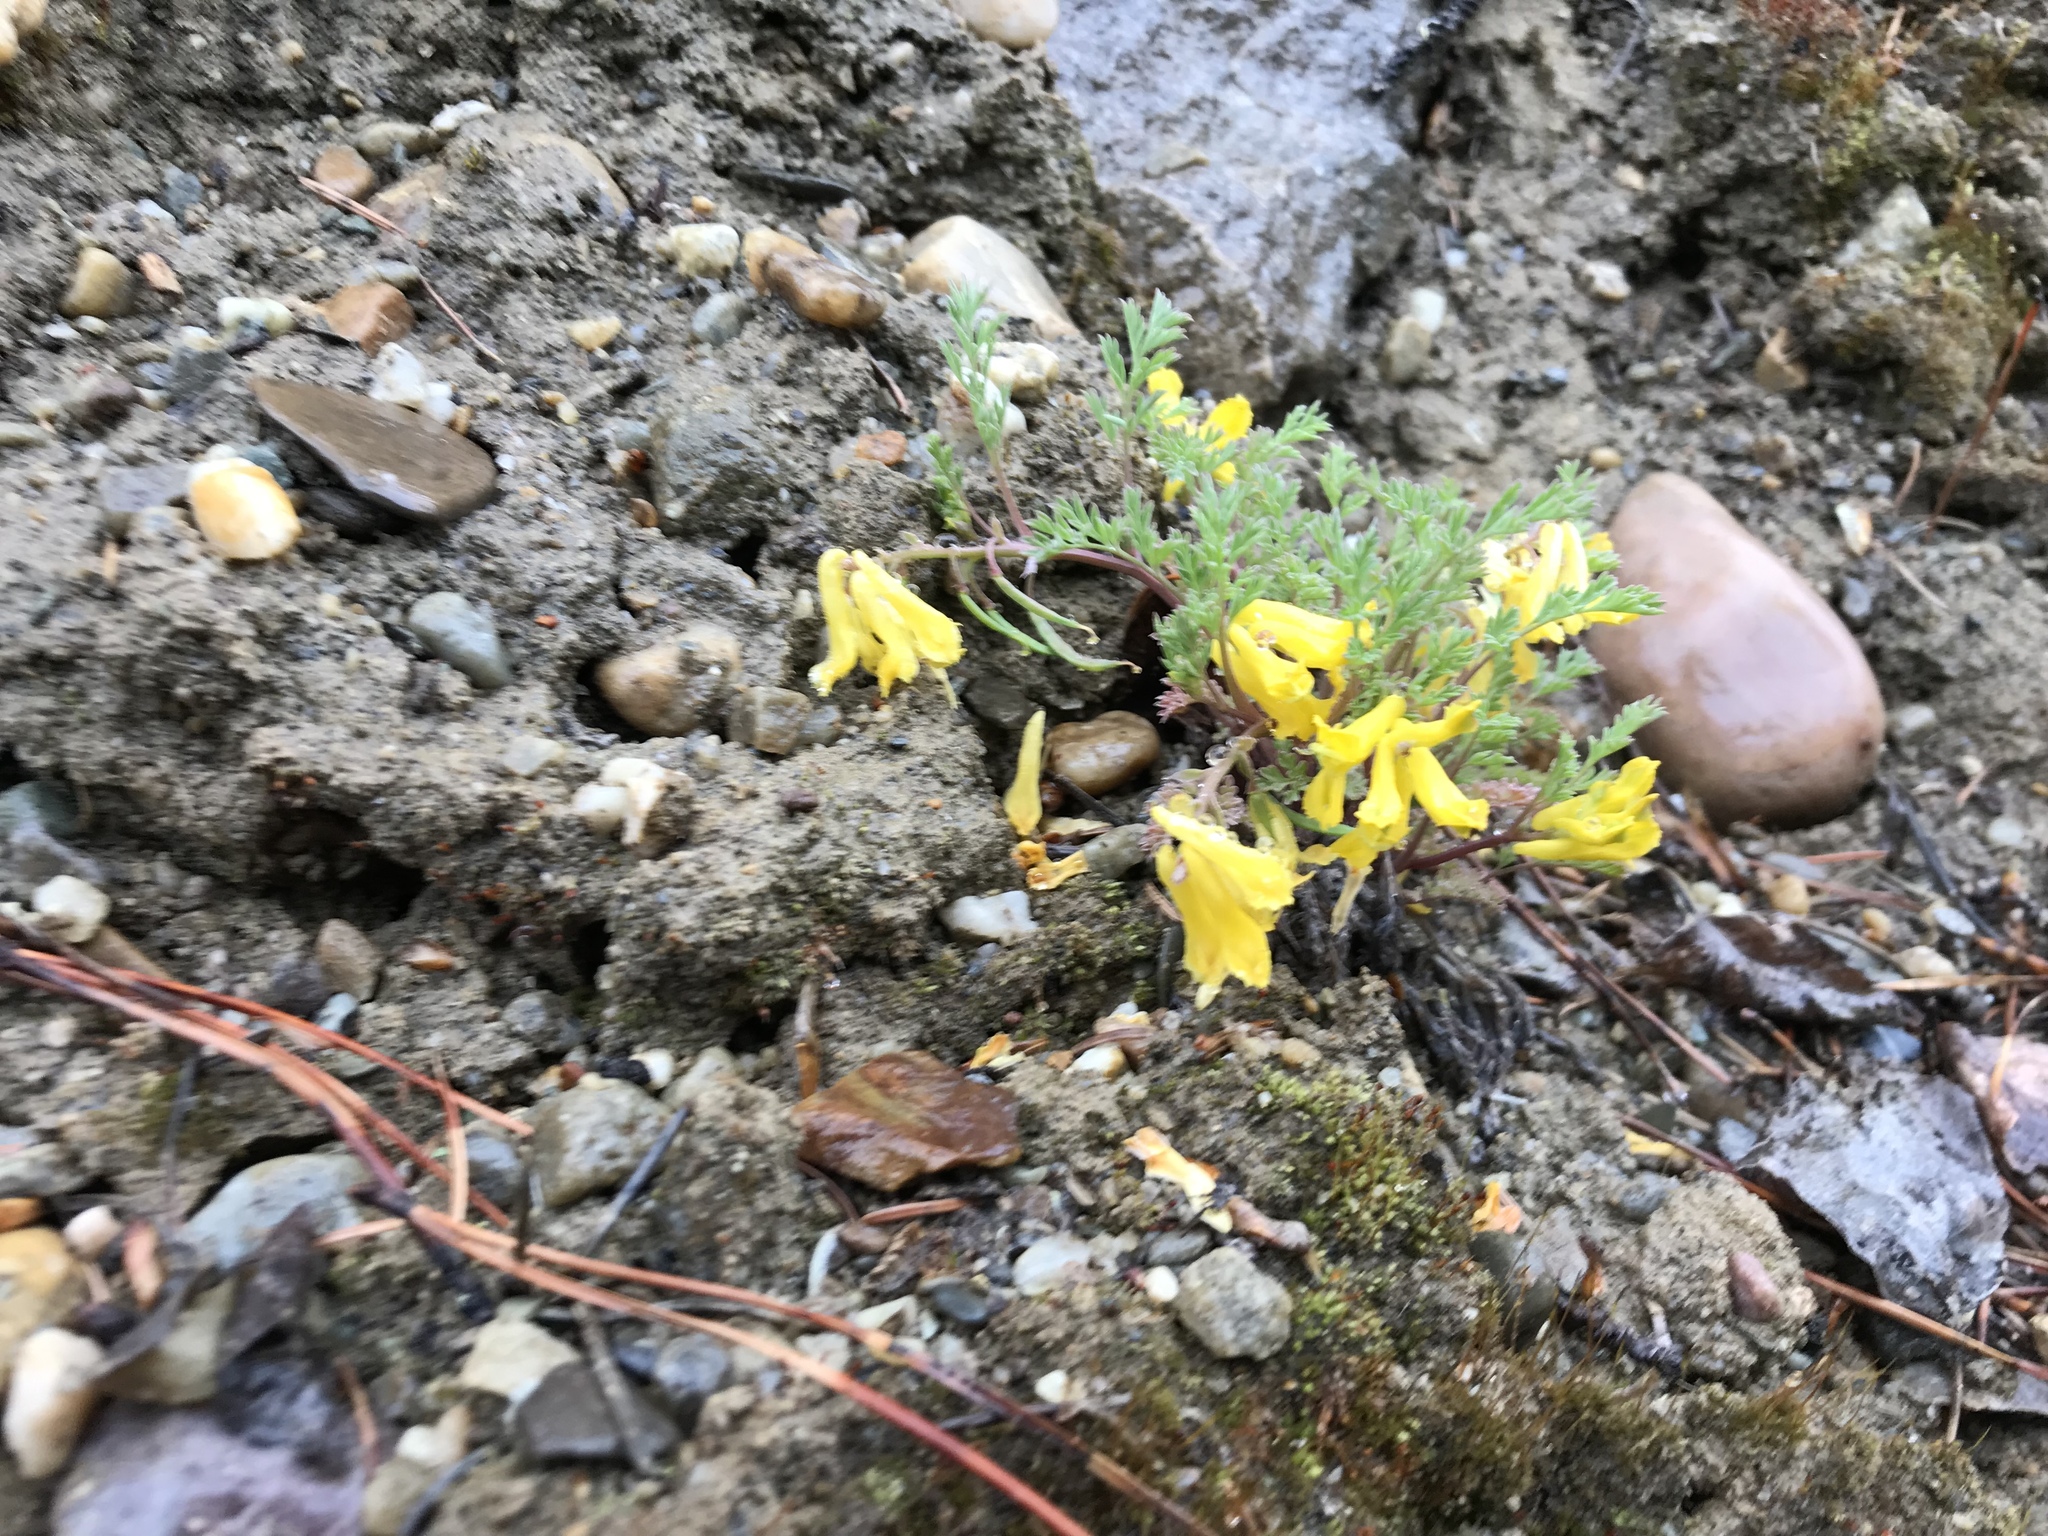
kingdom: Plantae
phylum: Tracheophyta
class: Magnoliopsida
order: Ranunculales
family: Papaveraceae
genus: Corydalis
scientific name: Corydalis aurea
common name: Golden corydalis
